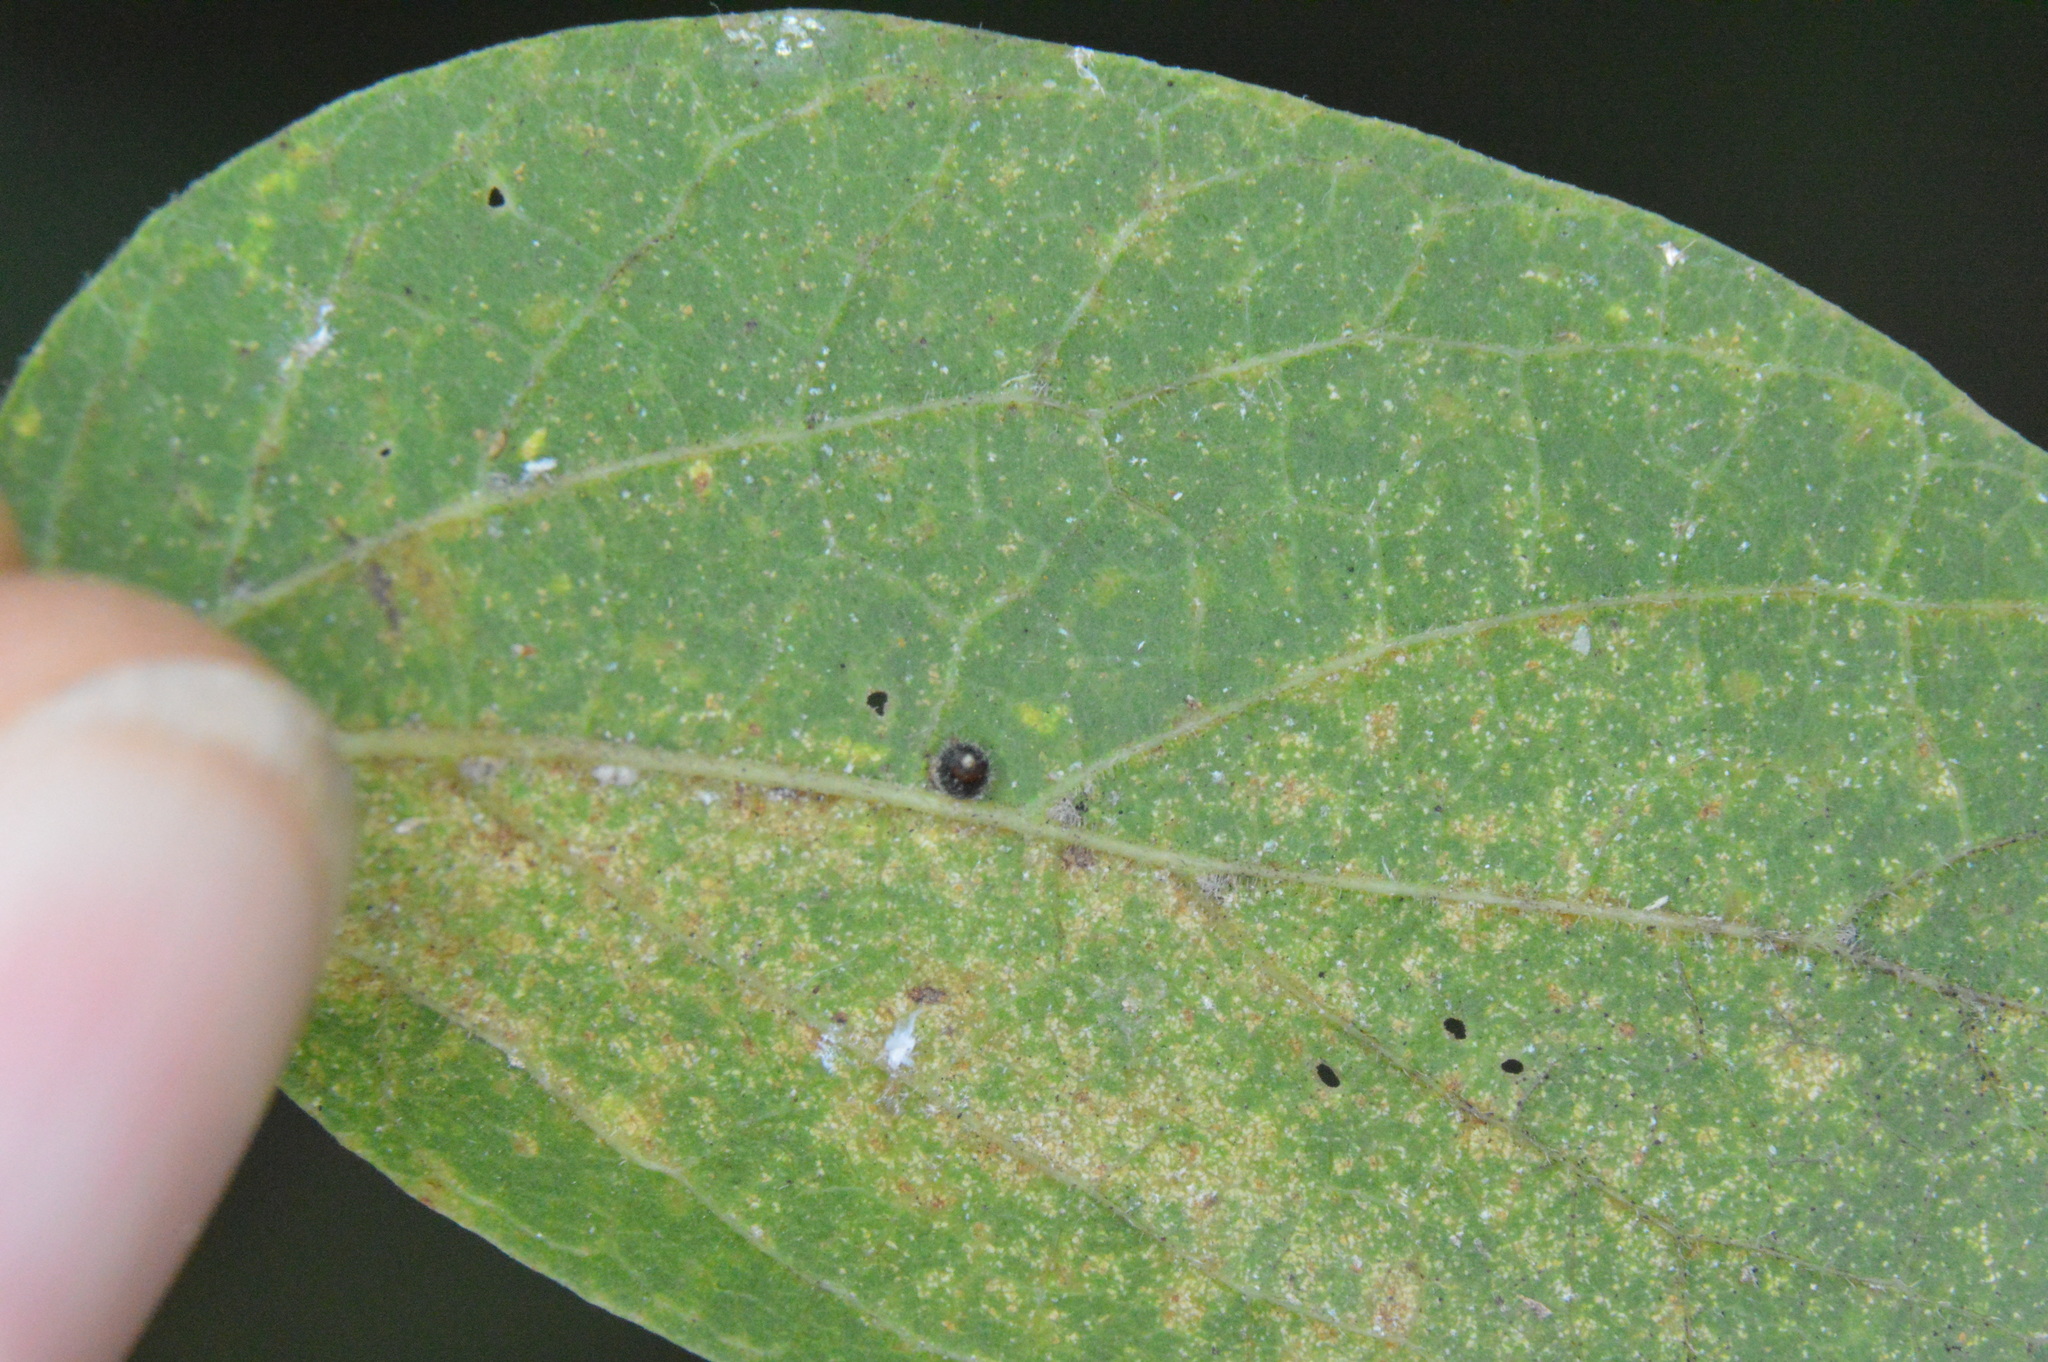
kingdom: Animalia
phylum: Arthropoda
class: Insecta
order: Diptera
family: Cecidomyiidae
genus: Celticecis
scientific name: Celticecis cupiformis
